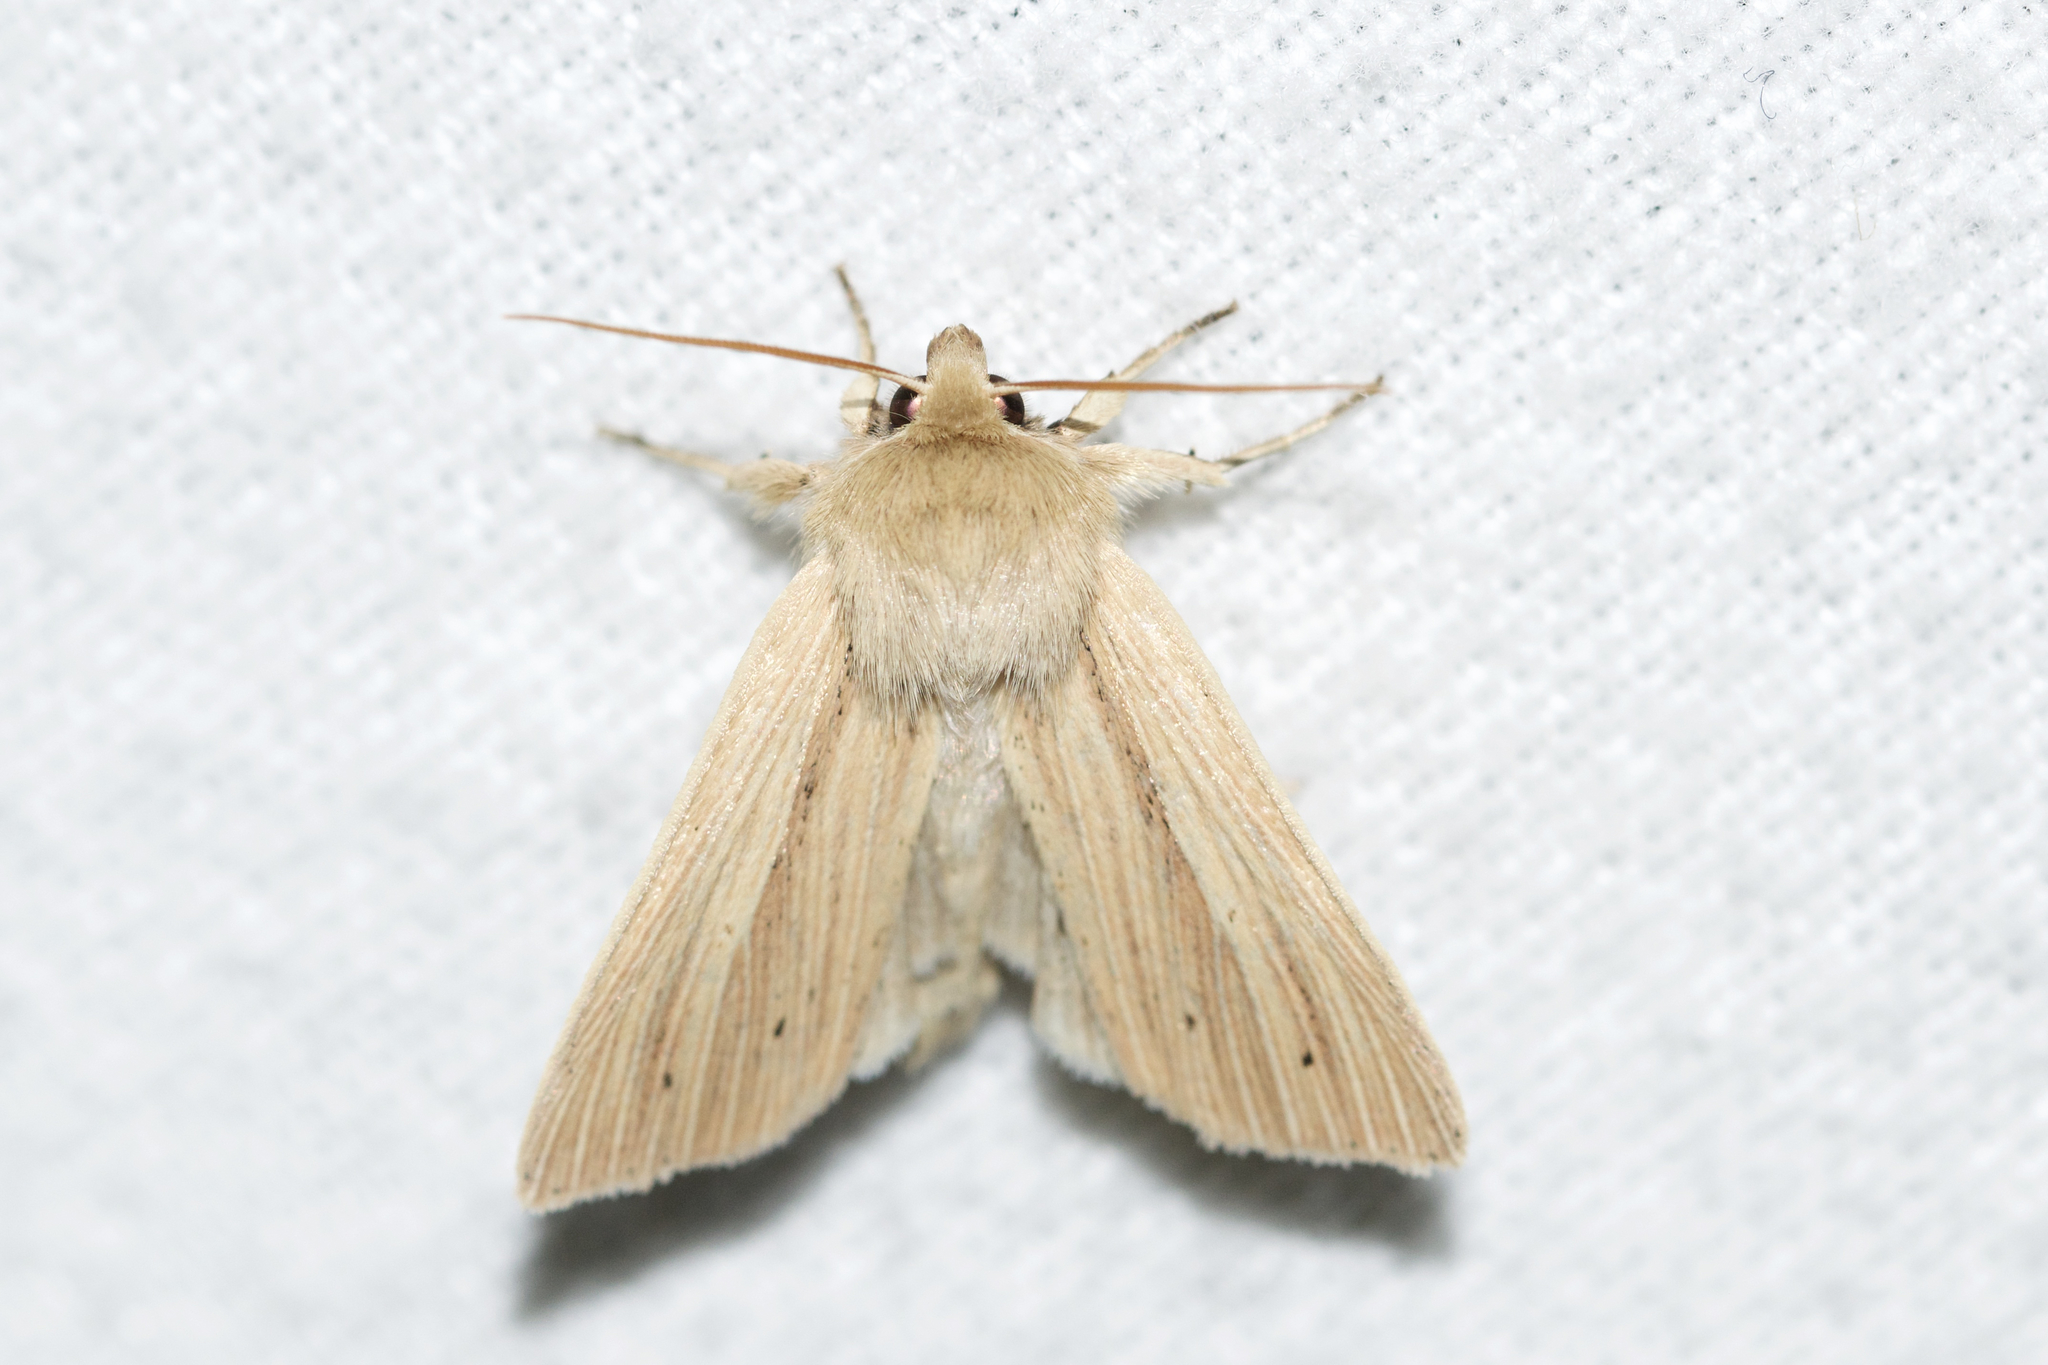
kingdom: Animalia
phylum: Arthropoda
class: Insecta
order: Lepidoptera
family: Noctuidae
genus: Mythimna
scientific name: Mythimna oxygala
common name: Lesser wainscot
